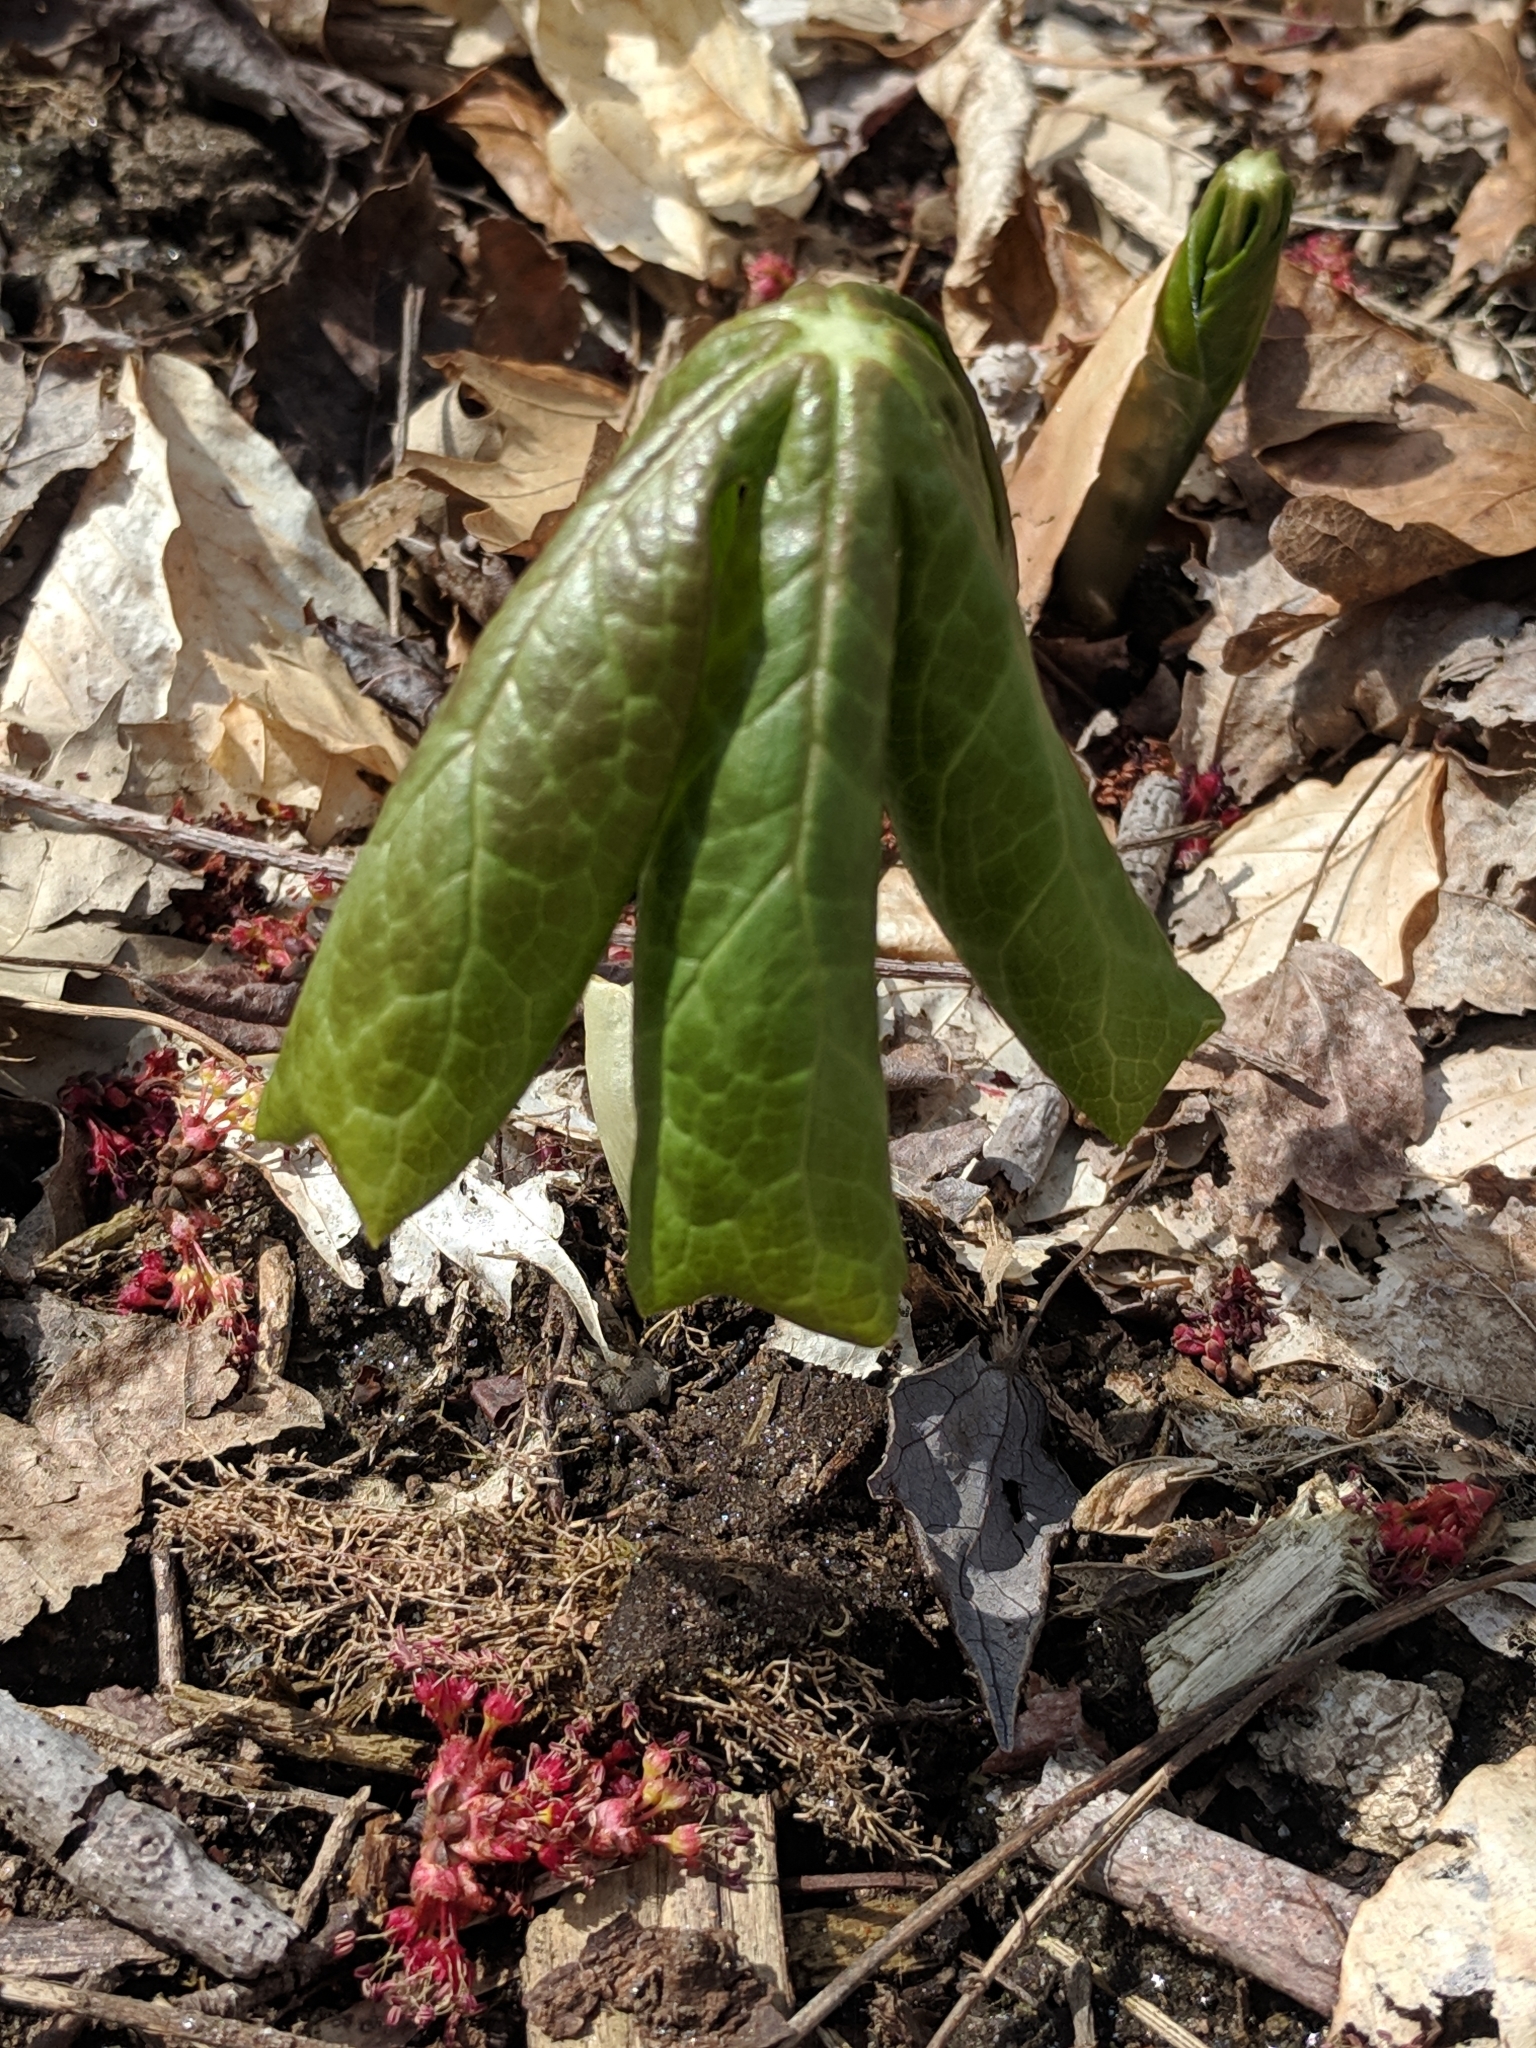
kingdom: Plantae
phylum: Tracheophyta
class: Magnoliopsida
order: Ranunculales
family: Berberidaceae
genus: Podophyllum
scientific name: Podophyllum peltatum
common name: Wild mandrake
